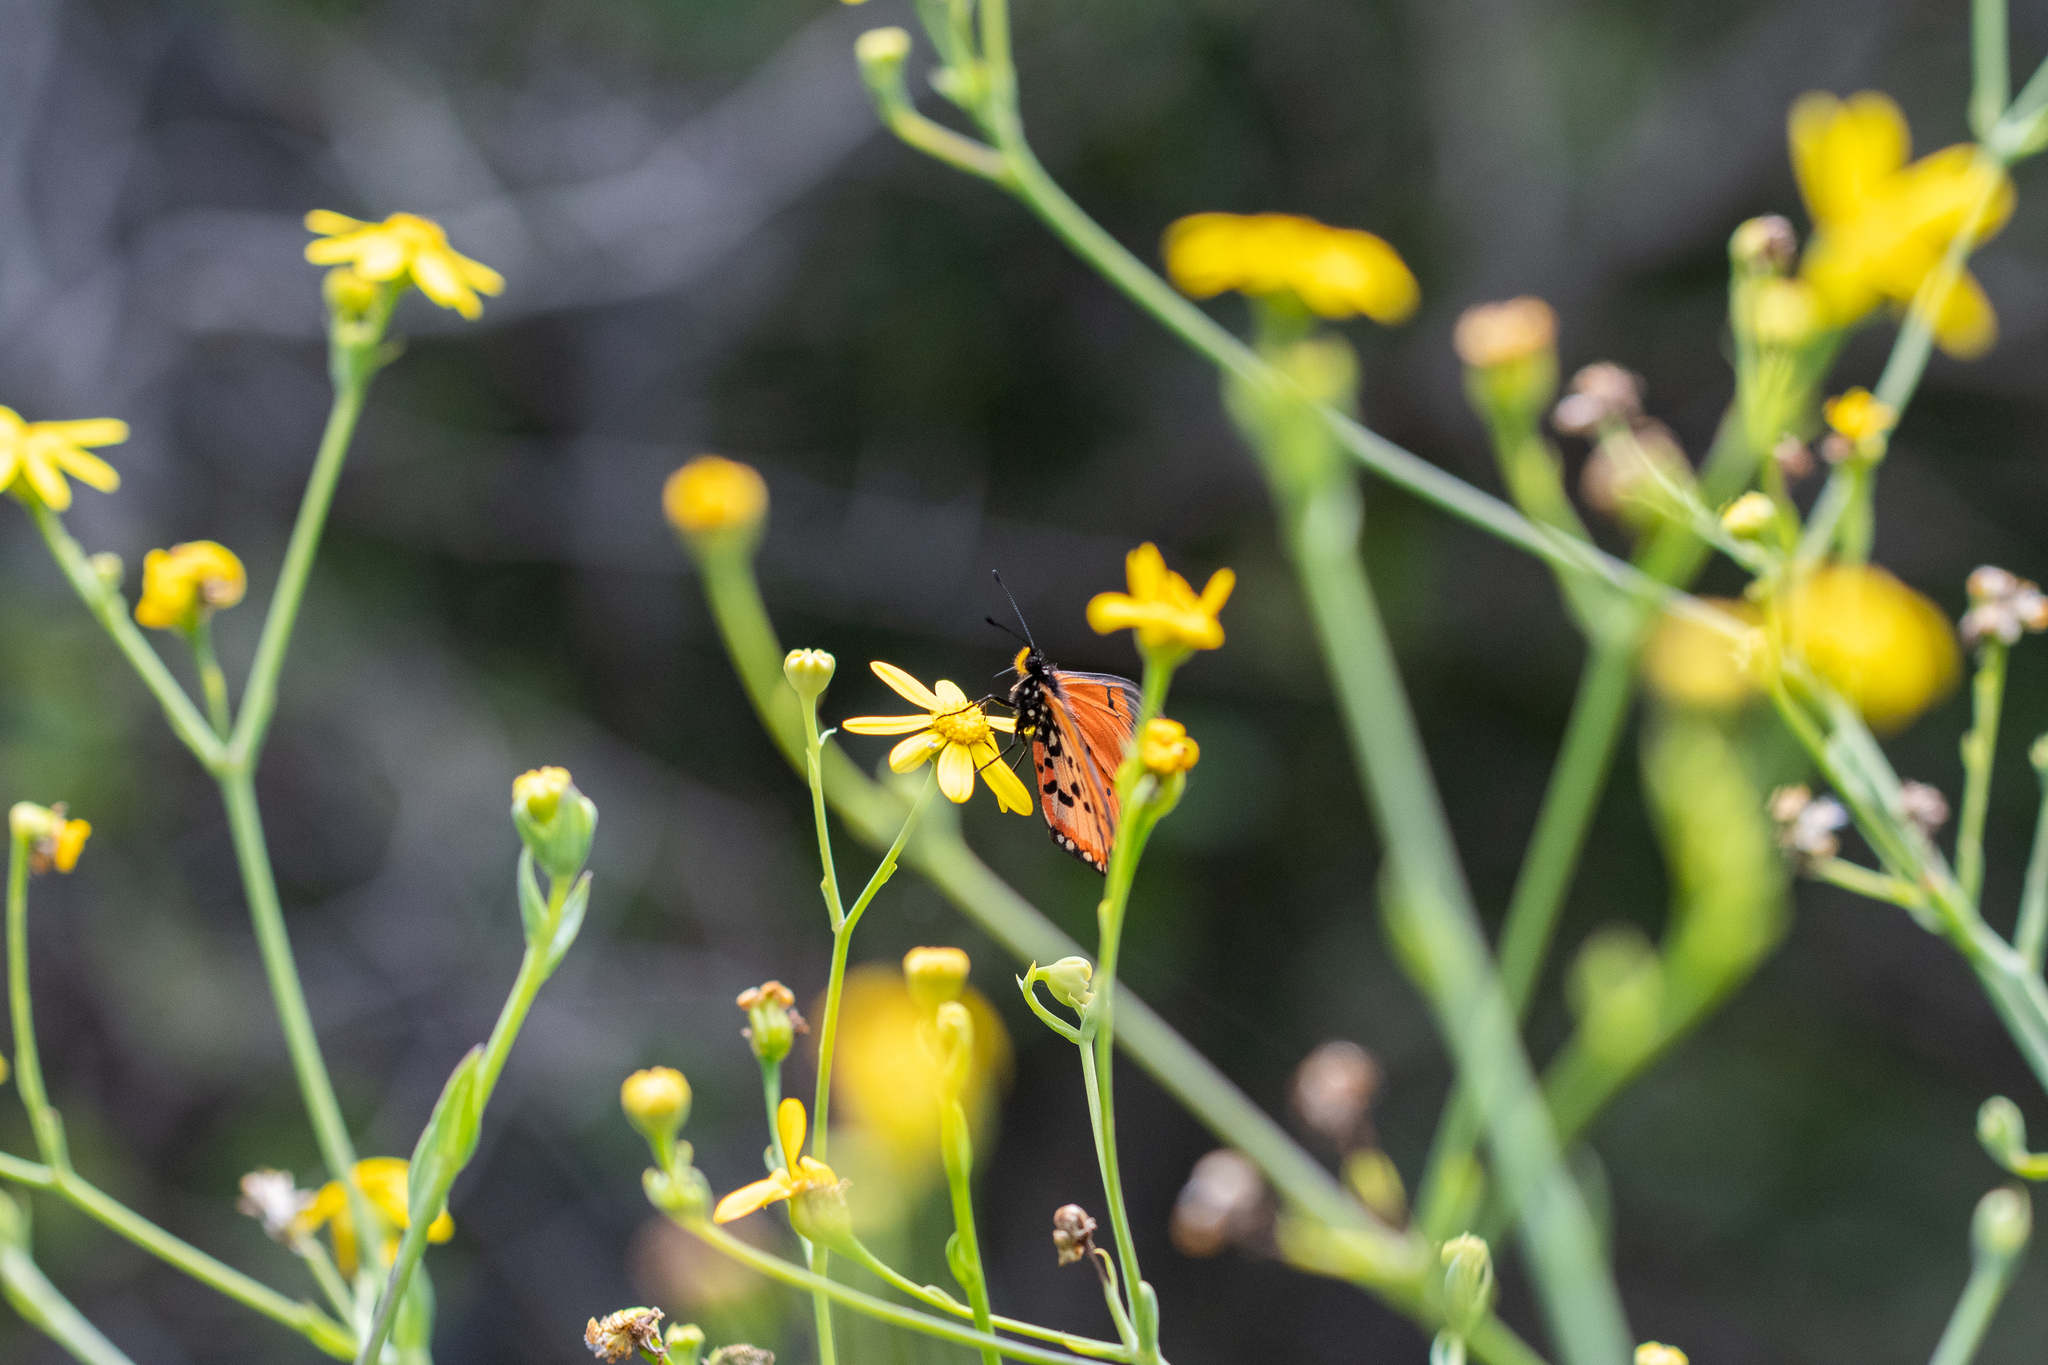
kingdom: Plantae
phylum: Tracheophyta
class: Magnoliopsida
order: Asterales
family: Asteraceae
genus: Othonna
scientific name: Othonna quinquedentata
